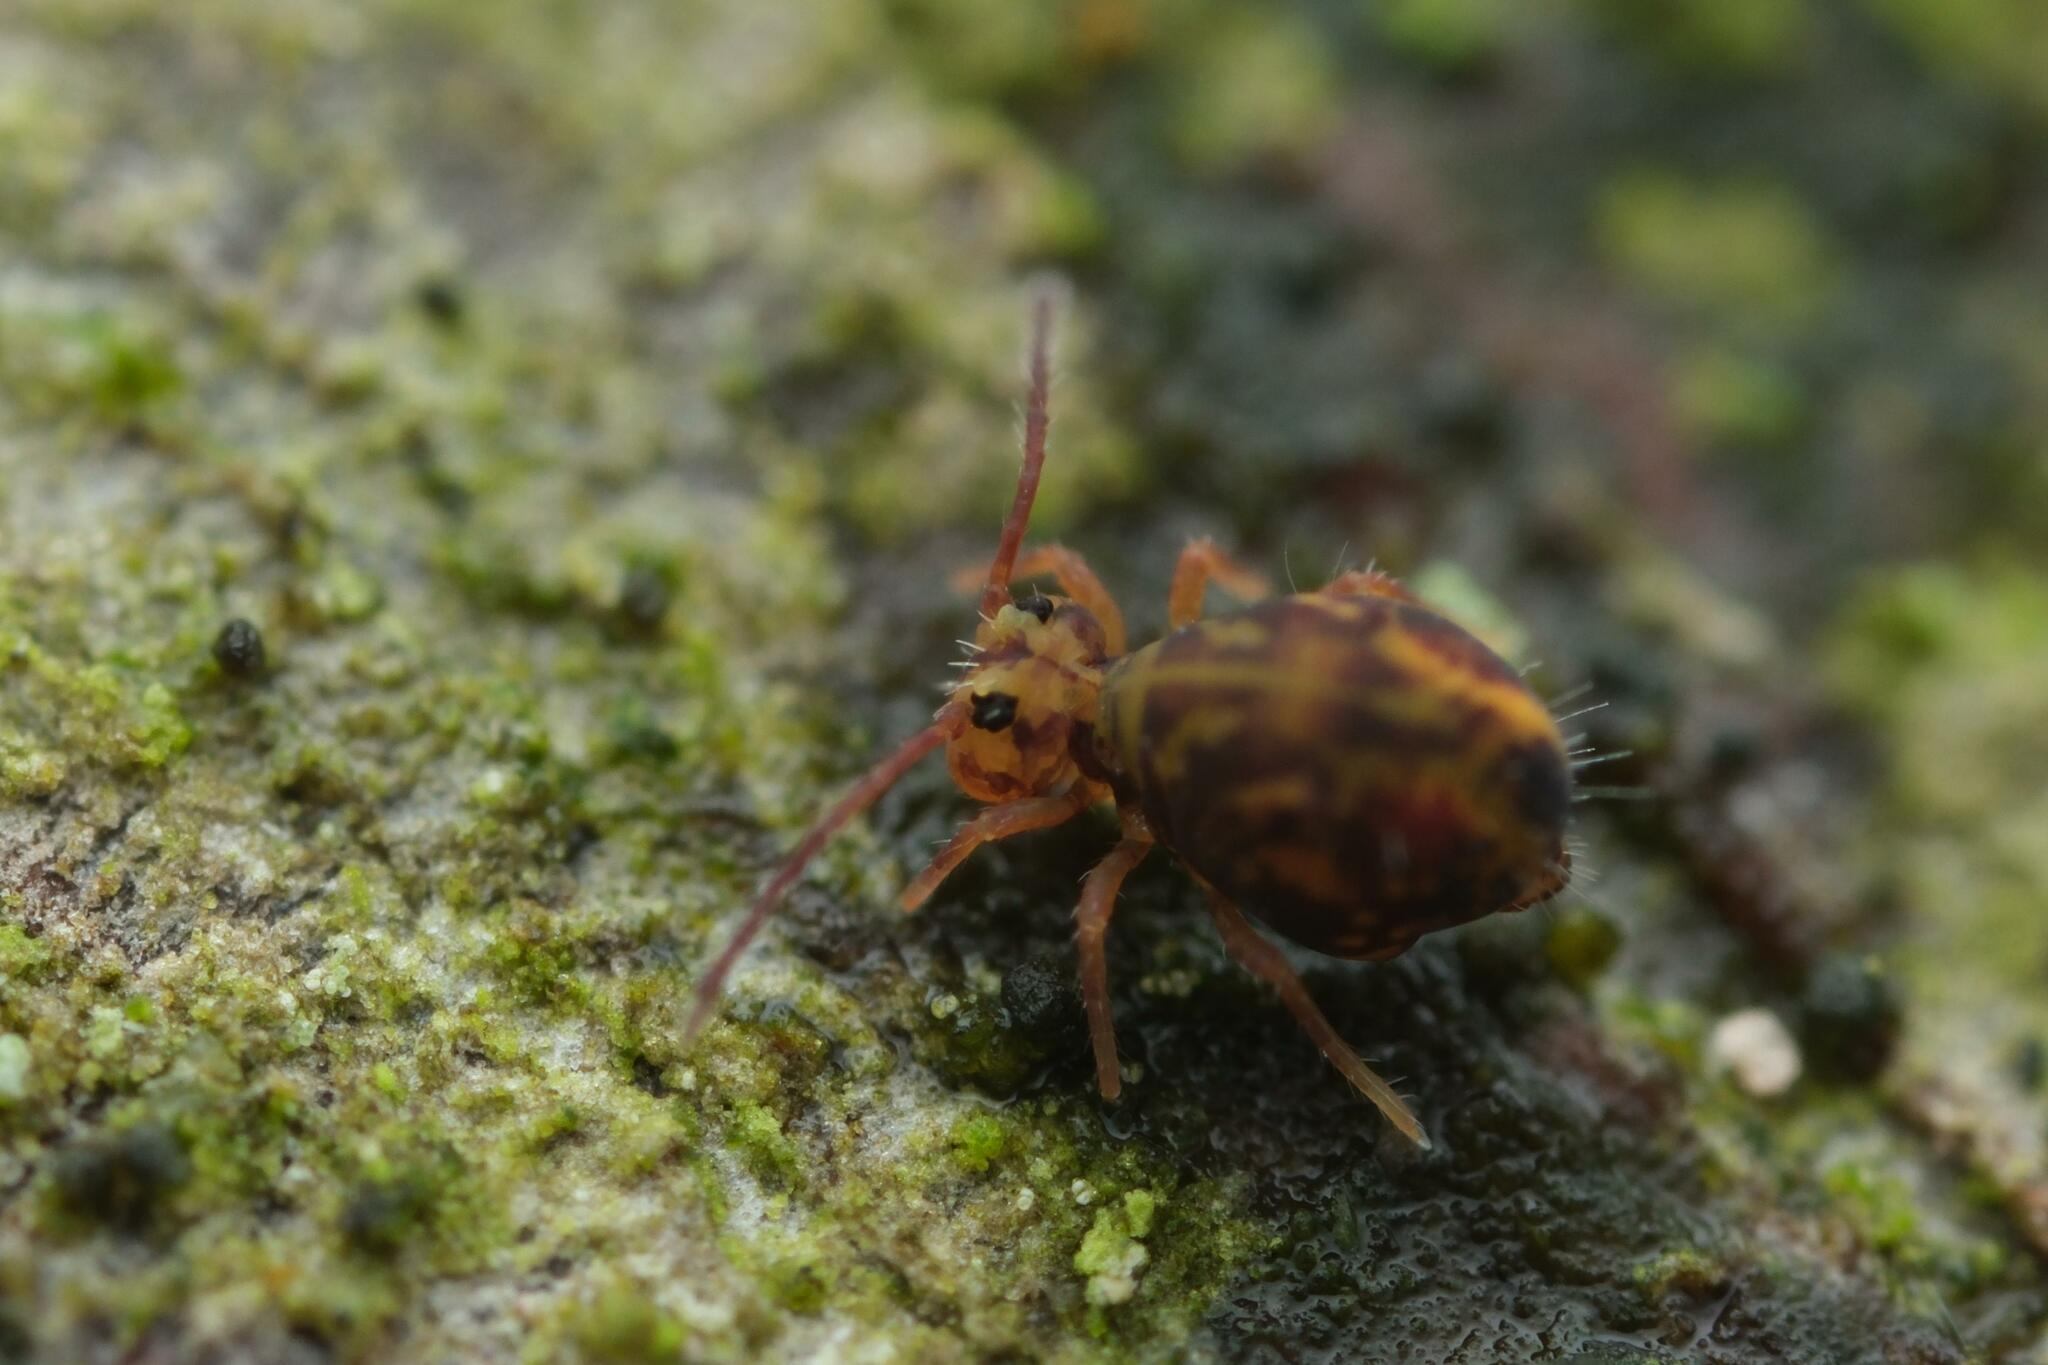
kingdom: Animalia
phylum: Arthropoda
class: Collembola
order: Symphypleona
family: Dicyrtomidae
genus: Dicyrtomina
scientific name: Dicyrtomina ornata
